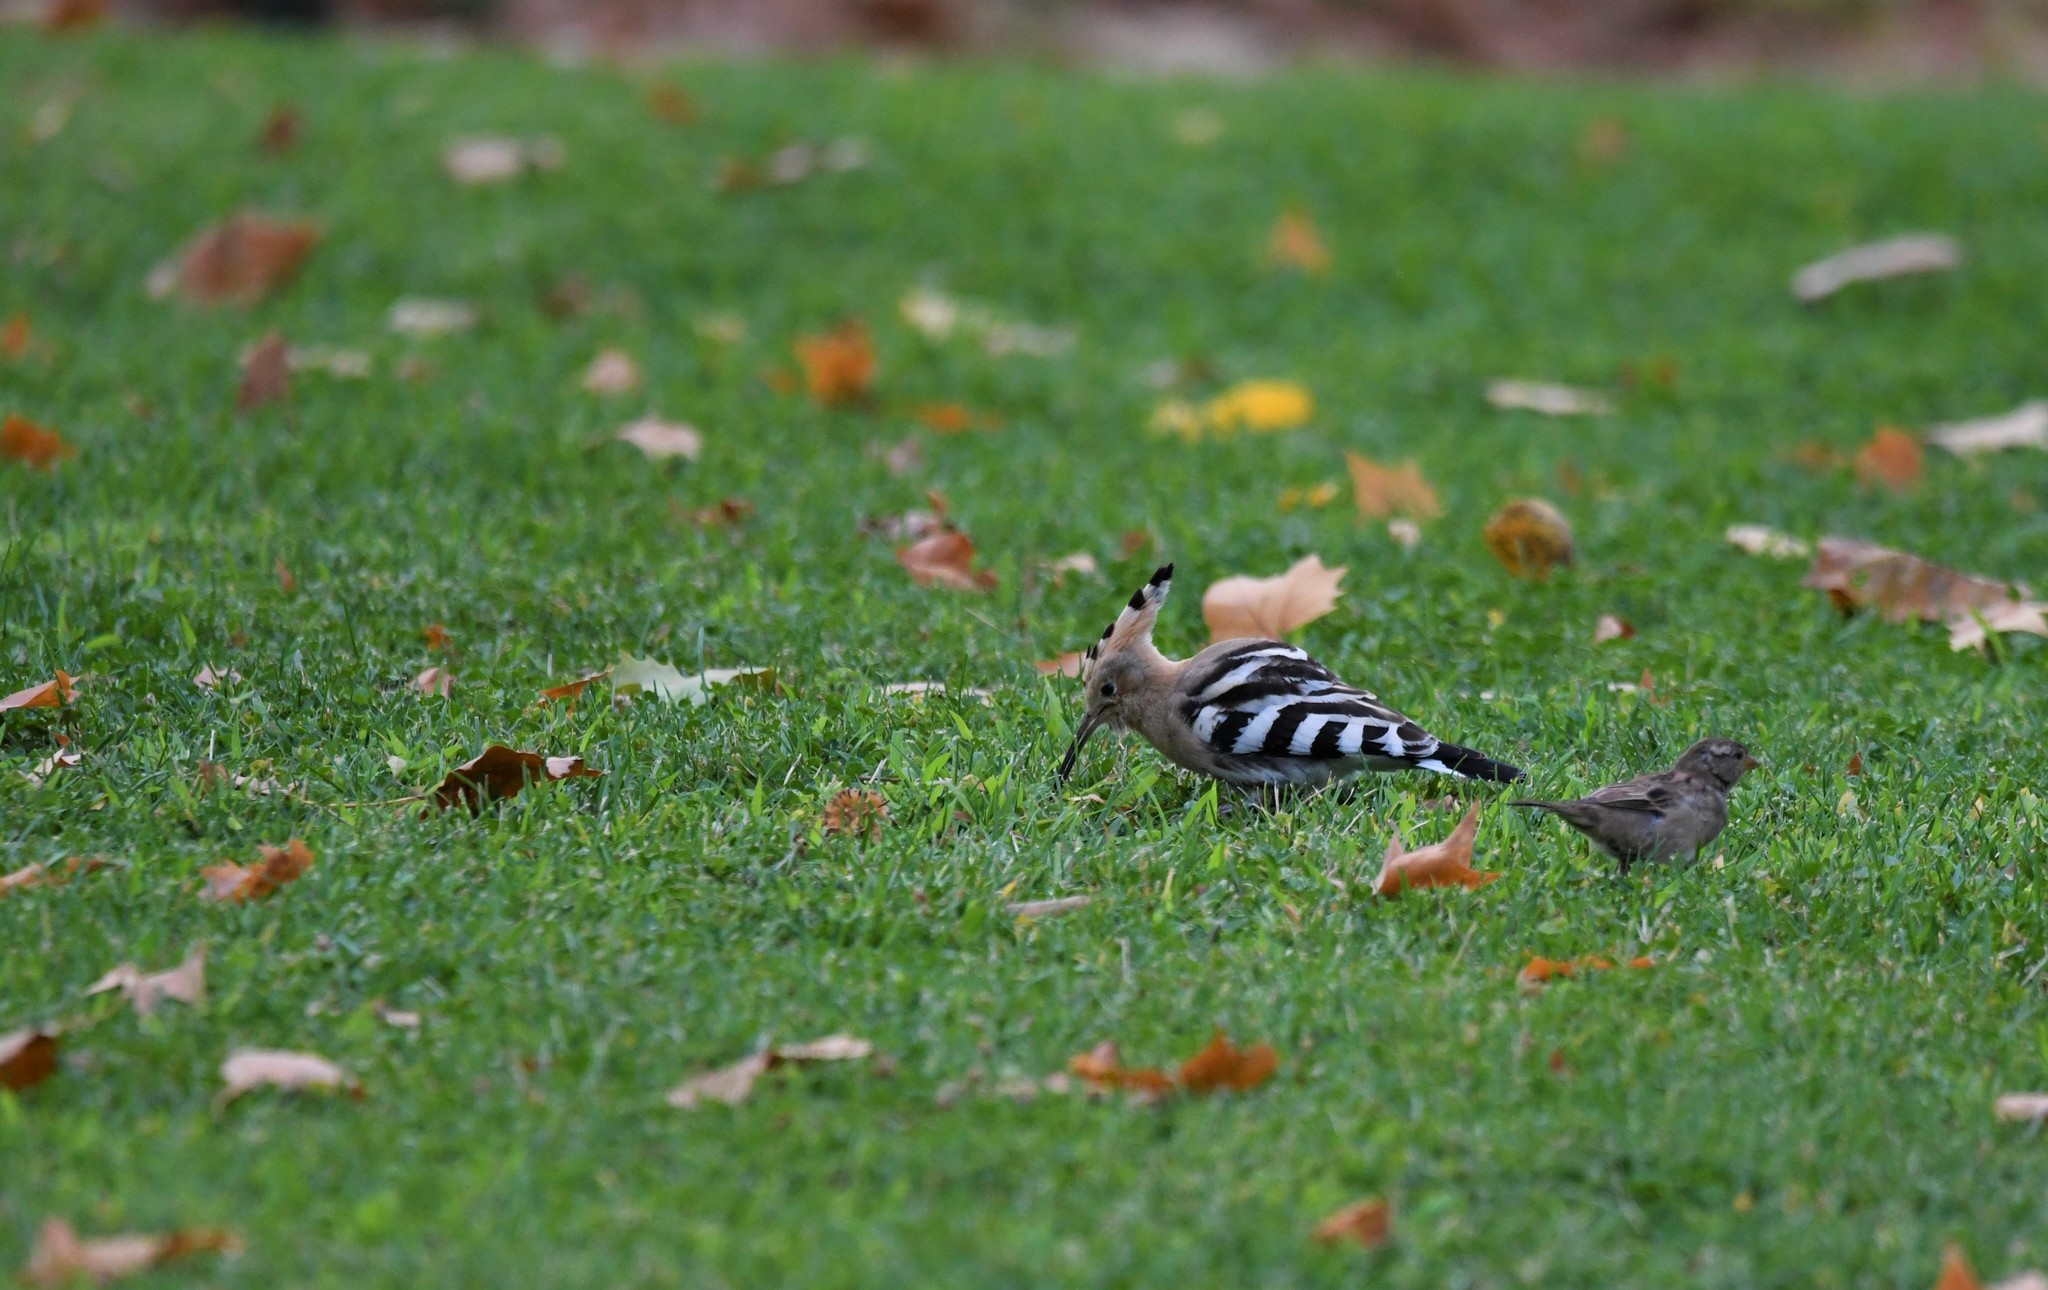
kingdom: Animalia
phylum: Chordata
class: Aves
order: Bucerotiformes
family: Upupidae
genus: Upupa
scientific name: Upupa epops
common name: Eurasian hoopoe
